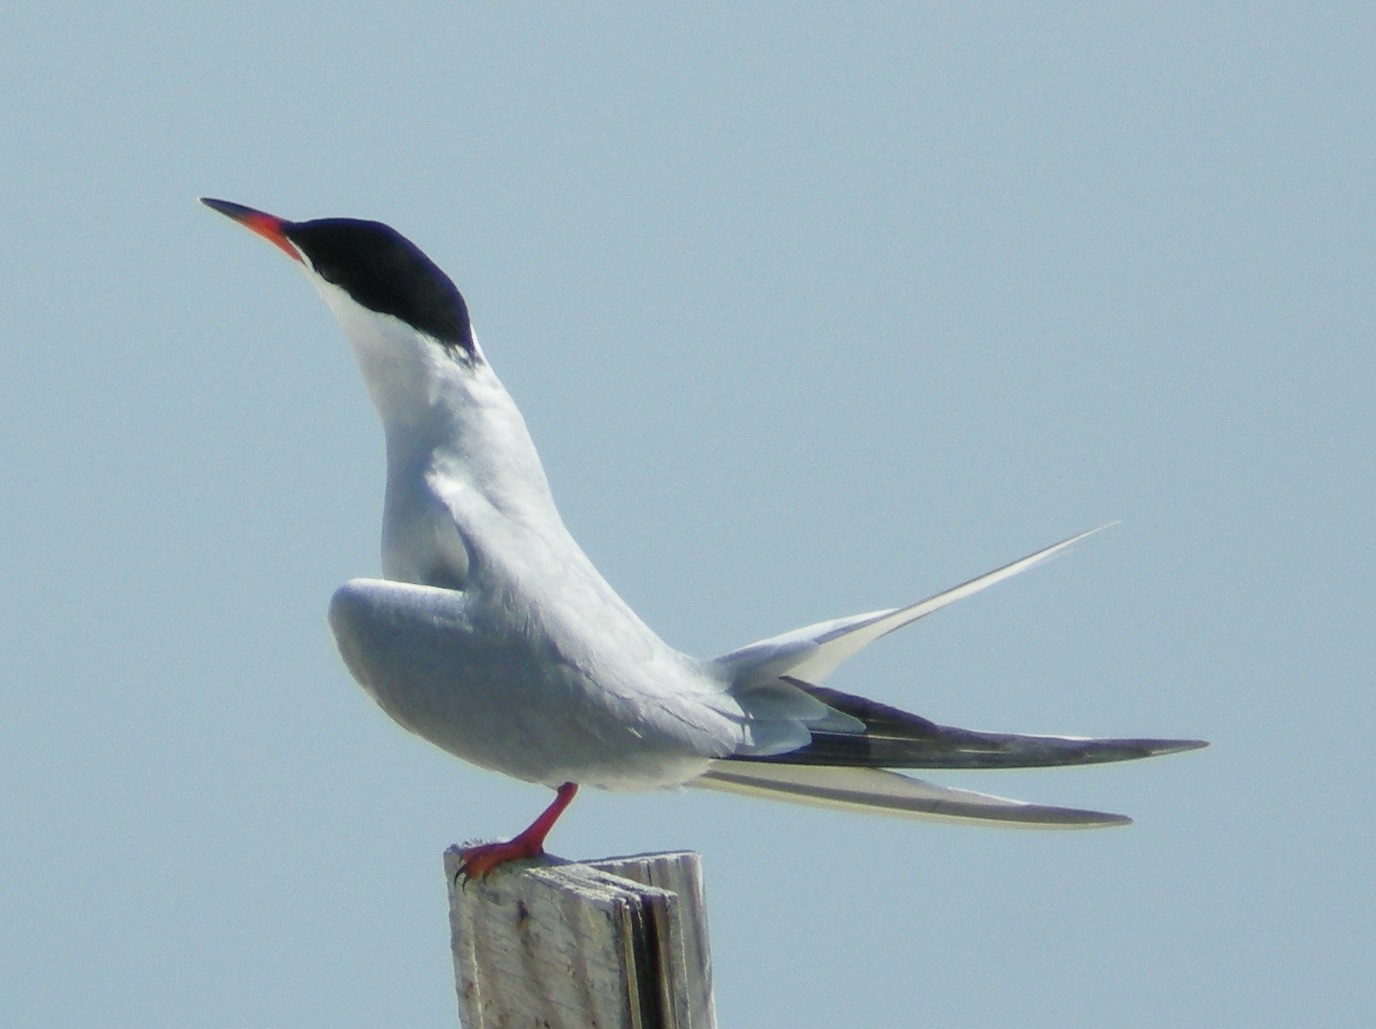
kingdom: Animalia
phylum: Chordata
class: Aves
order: Charadriiformes
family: Laridae
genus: Sterna
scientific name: Sterna hirundo
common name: Common tern
